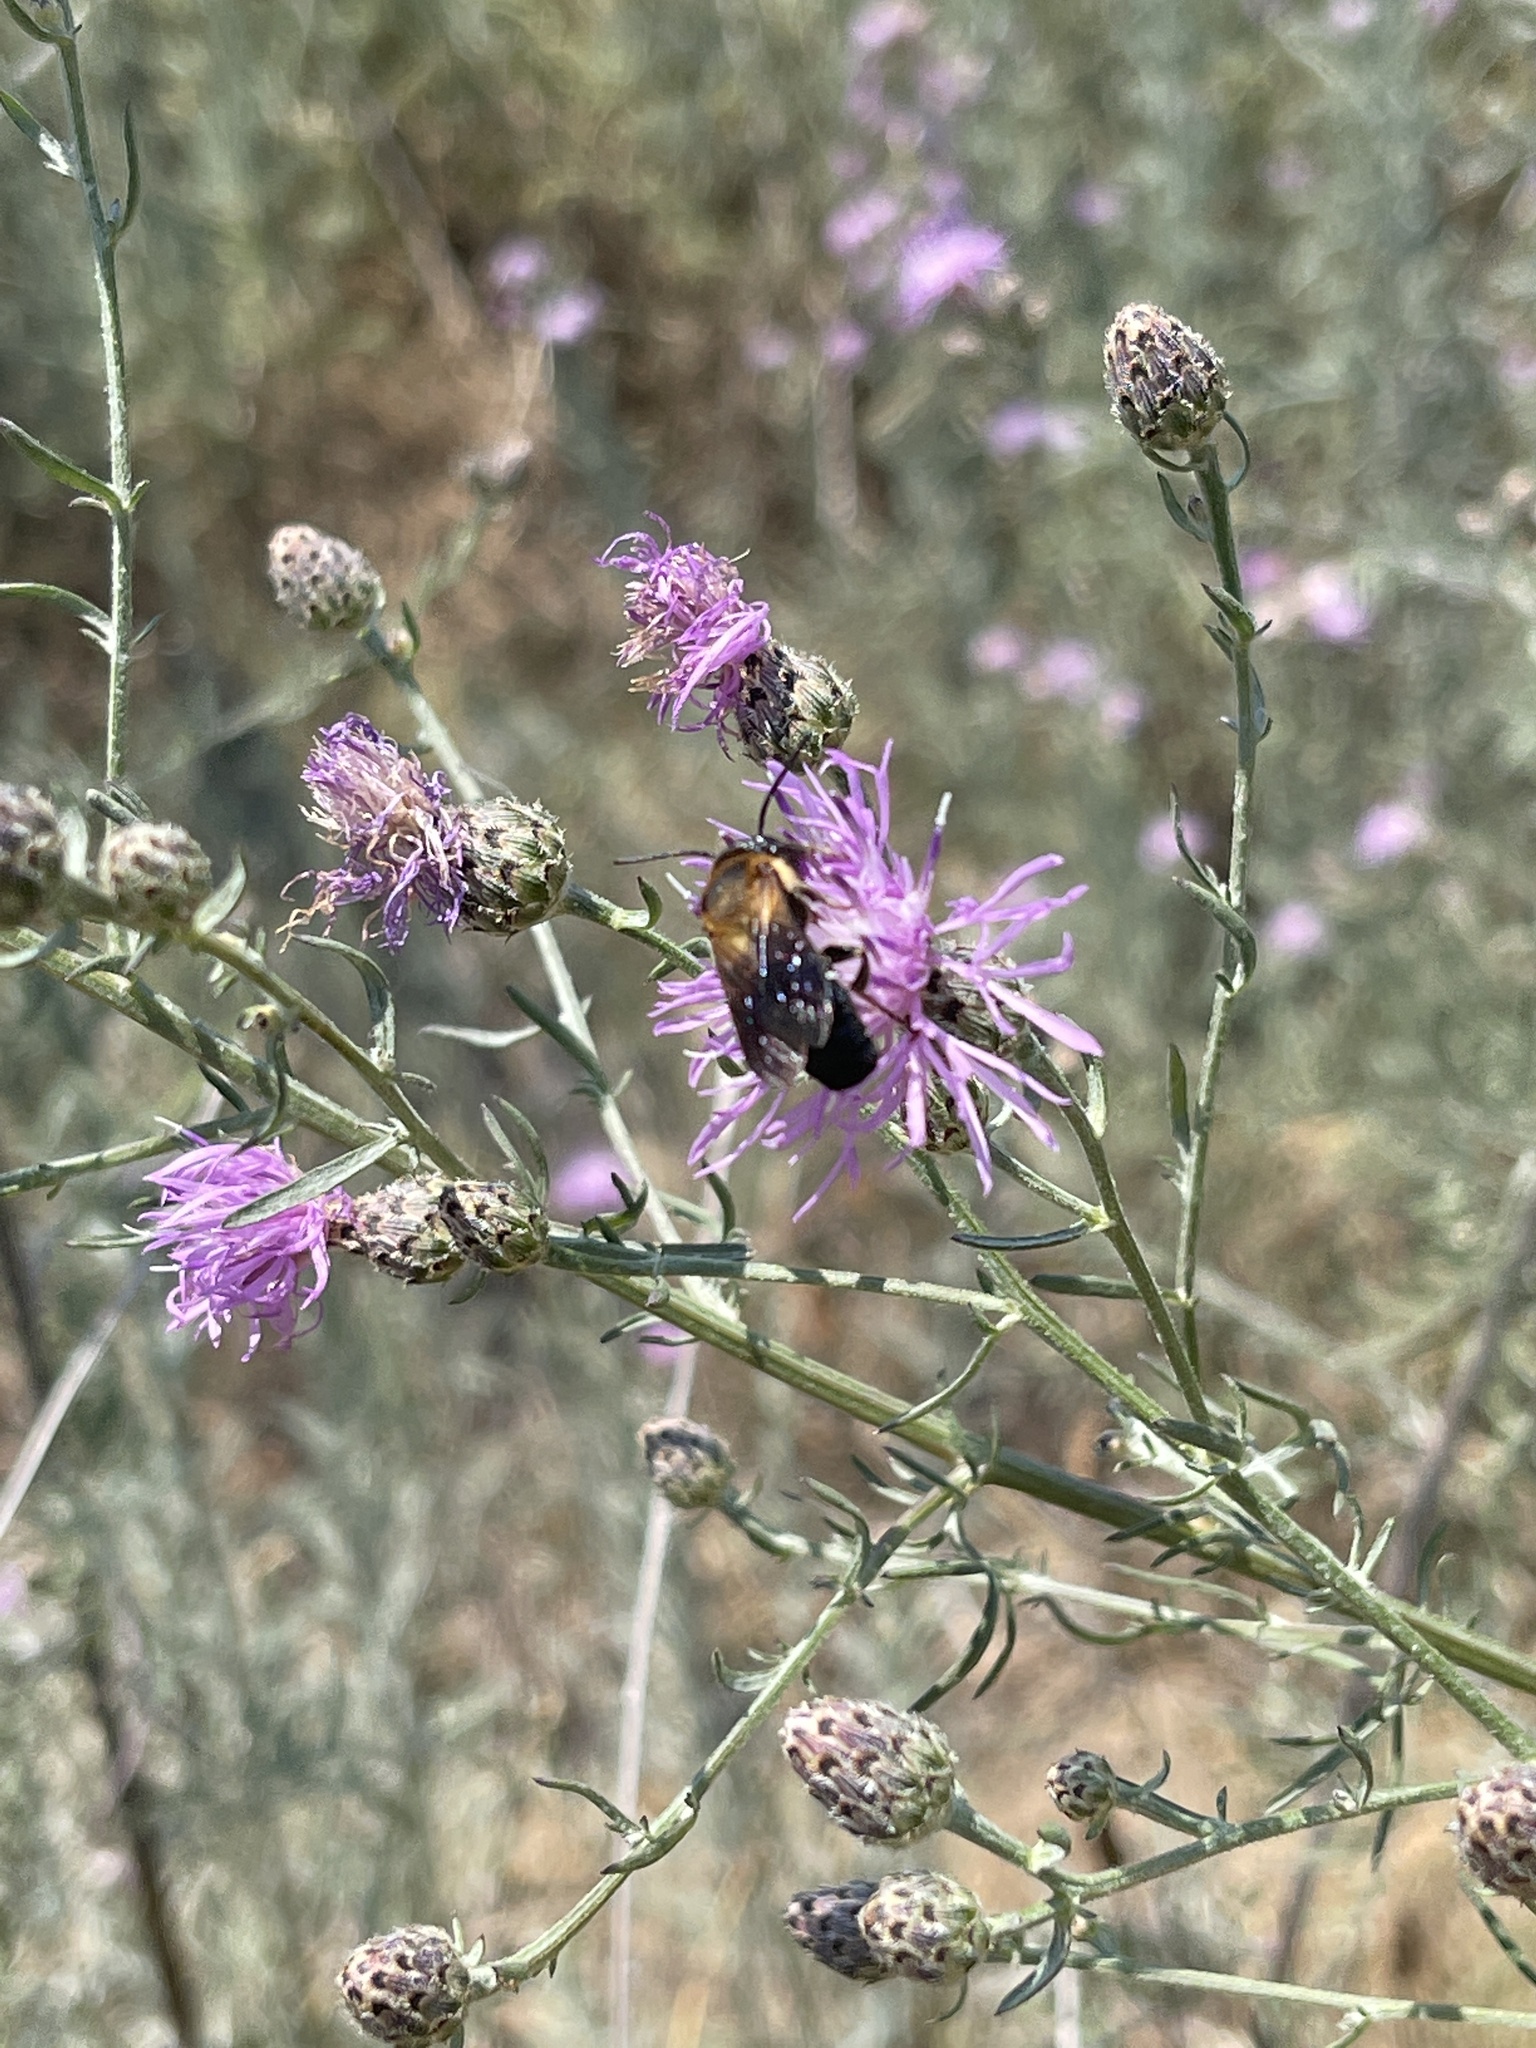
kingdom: Animalia
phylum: Arthropoda
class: Insecta
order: Hymenoptera
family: Megachilidae
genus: Megachile
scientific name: Megachile sculpturalis
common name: Sculptured resin bee
